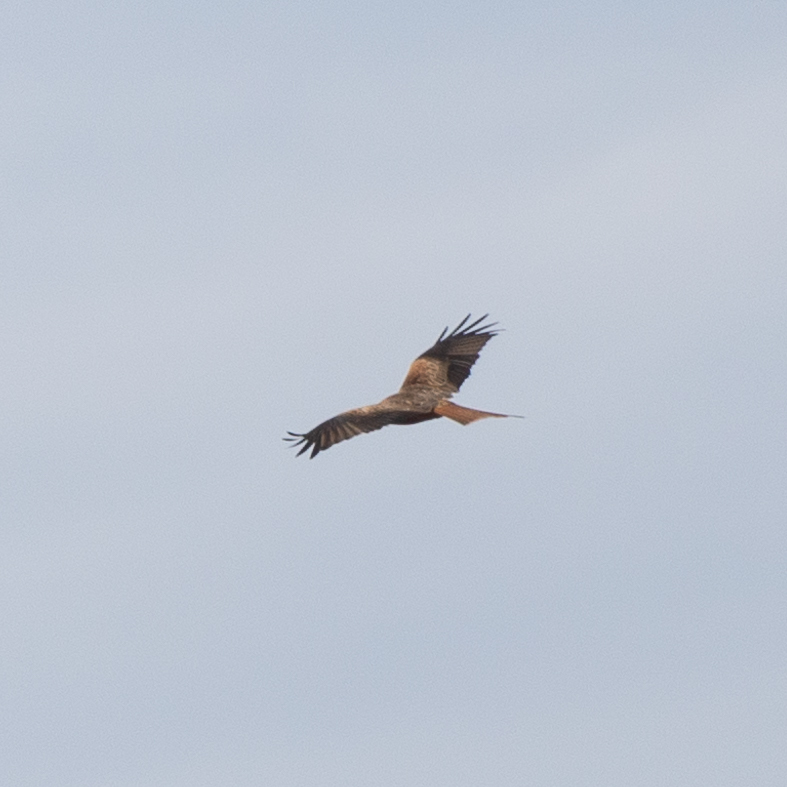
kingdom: Animalia
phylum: Chordata
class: Aves
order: Accipitriformes
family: Accipitridae
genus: Milvus
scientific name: Milvus milvus
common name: Red kite
